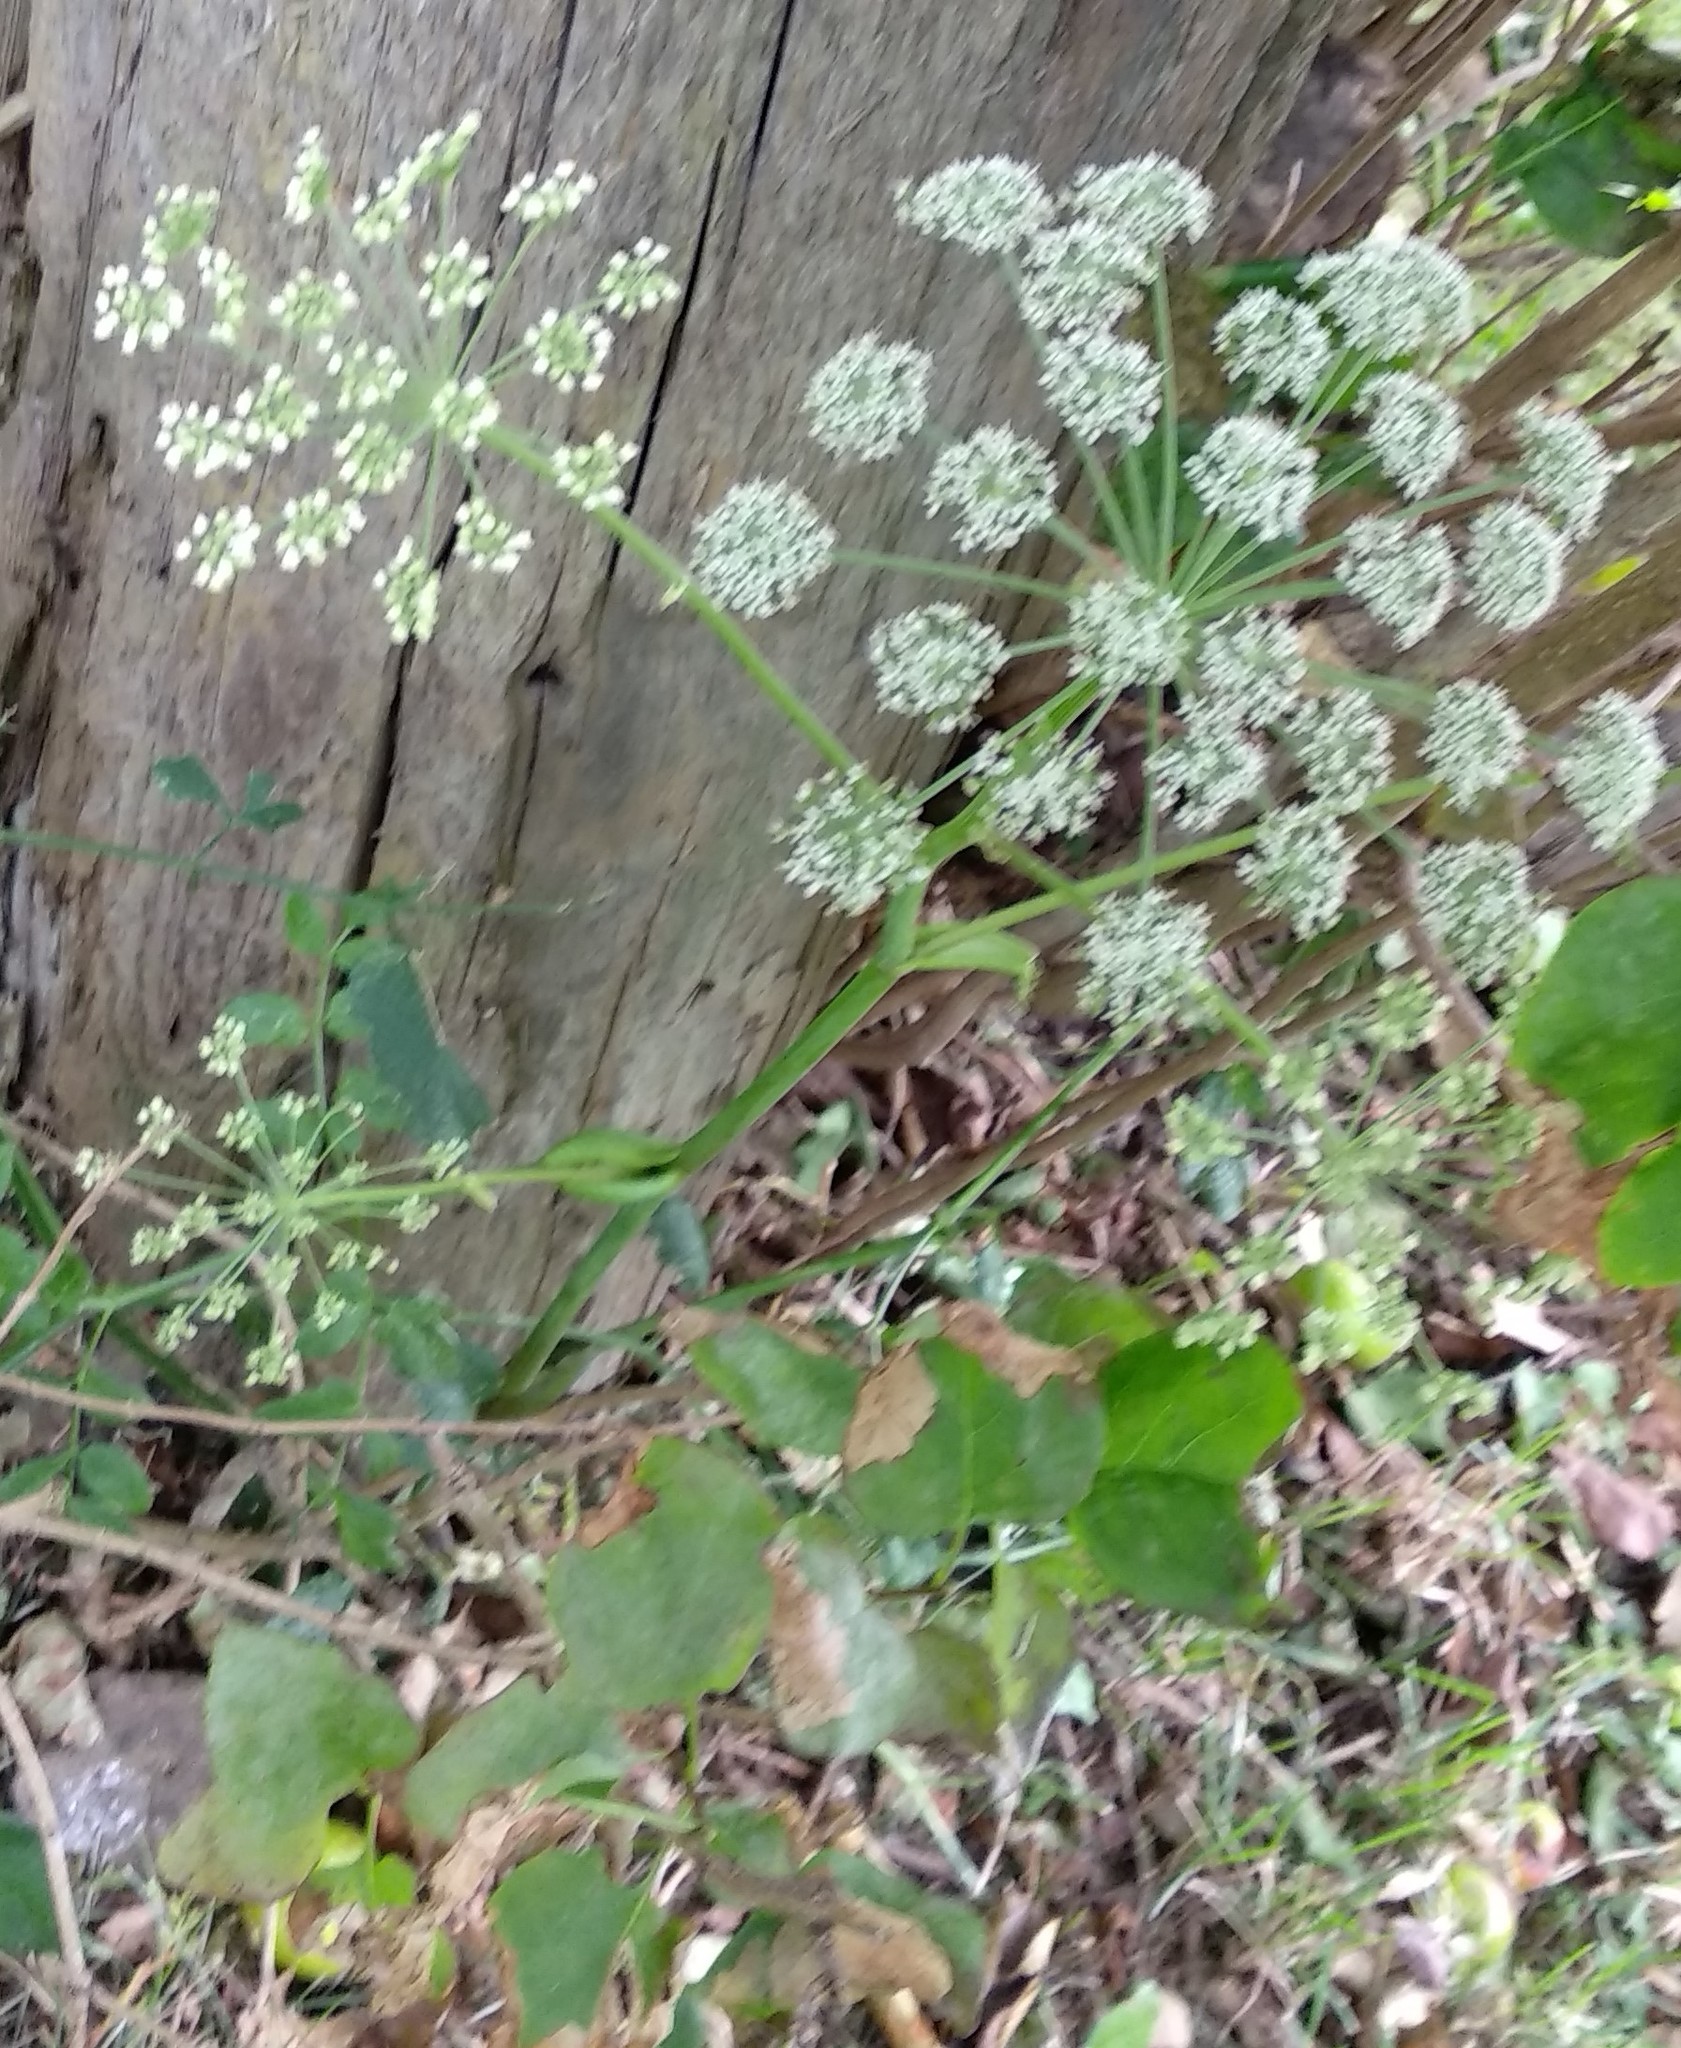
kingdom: Plantae
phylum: Tracheophyta
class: Magnoliopsida
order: Apiales
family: Apiaceae
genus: Angelica
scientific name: Angelica sylvestris
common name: Wild angelica
